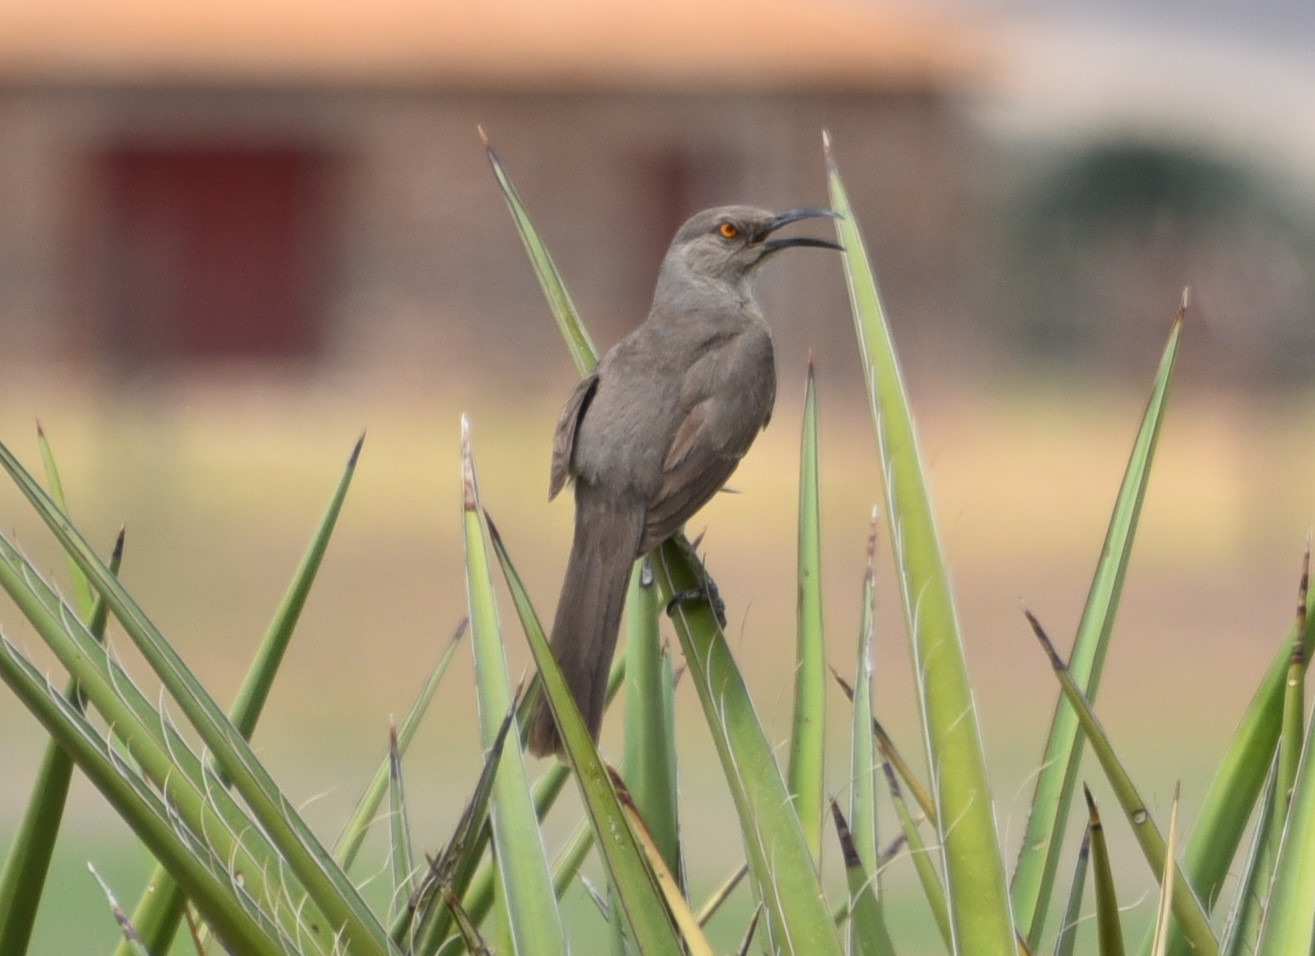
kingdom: Animalia
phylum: Chordata
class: Aves
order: Passeriformes
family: Mimidae
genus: Toxostoma
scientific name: Toxostoma curvirostre
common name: Curve-billed thrasher
